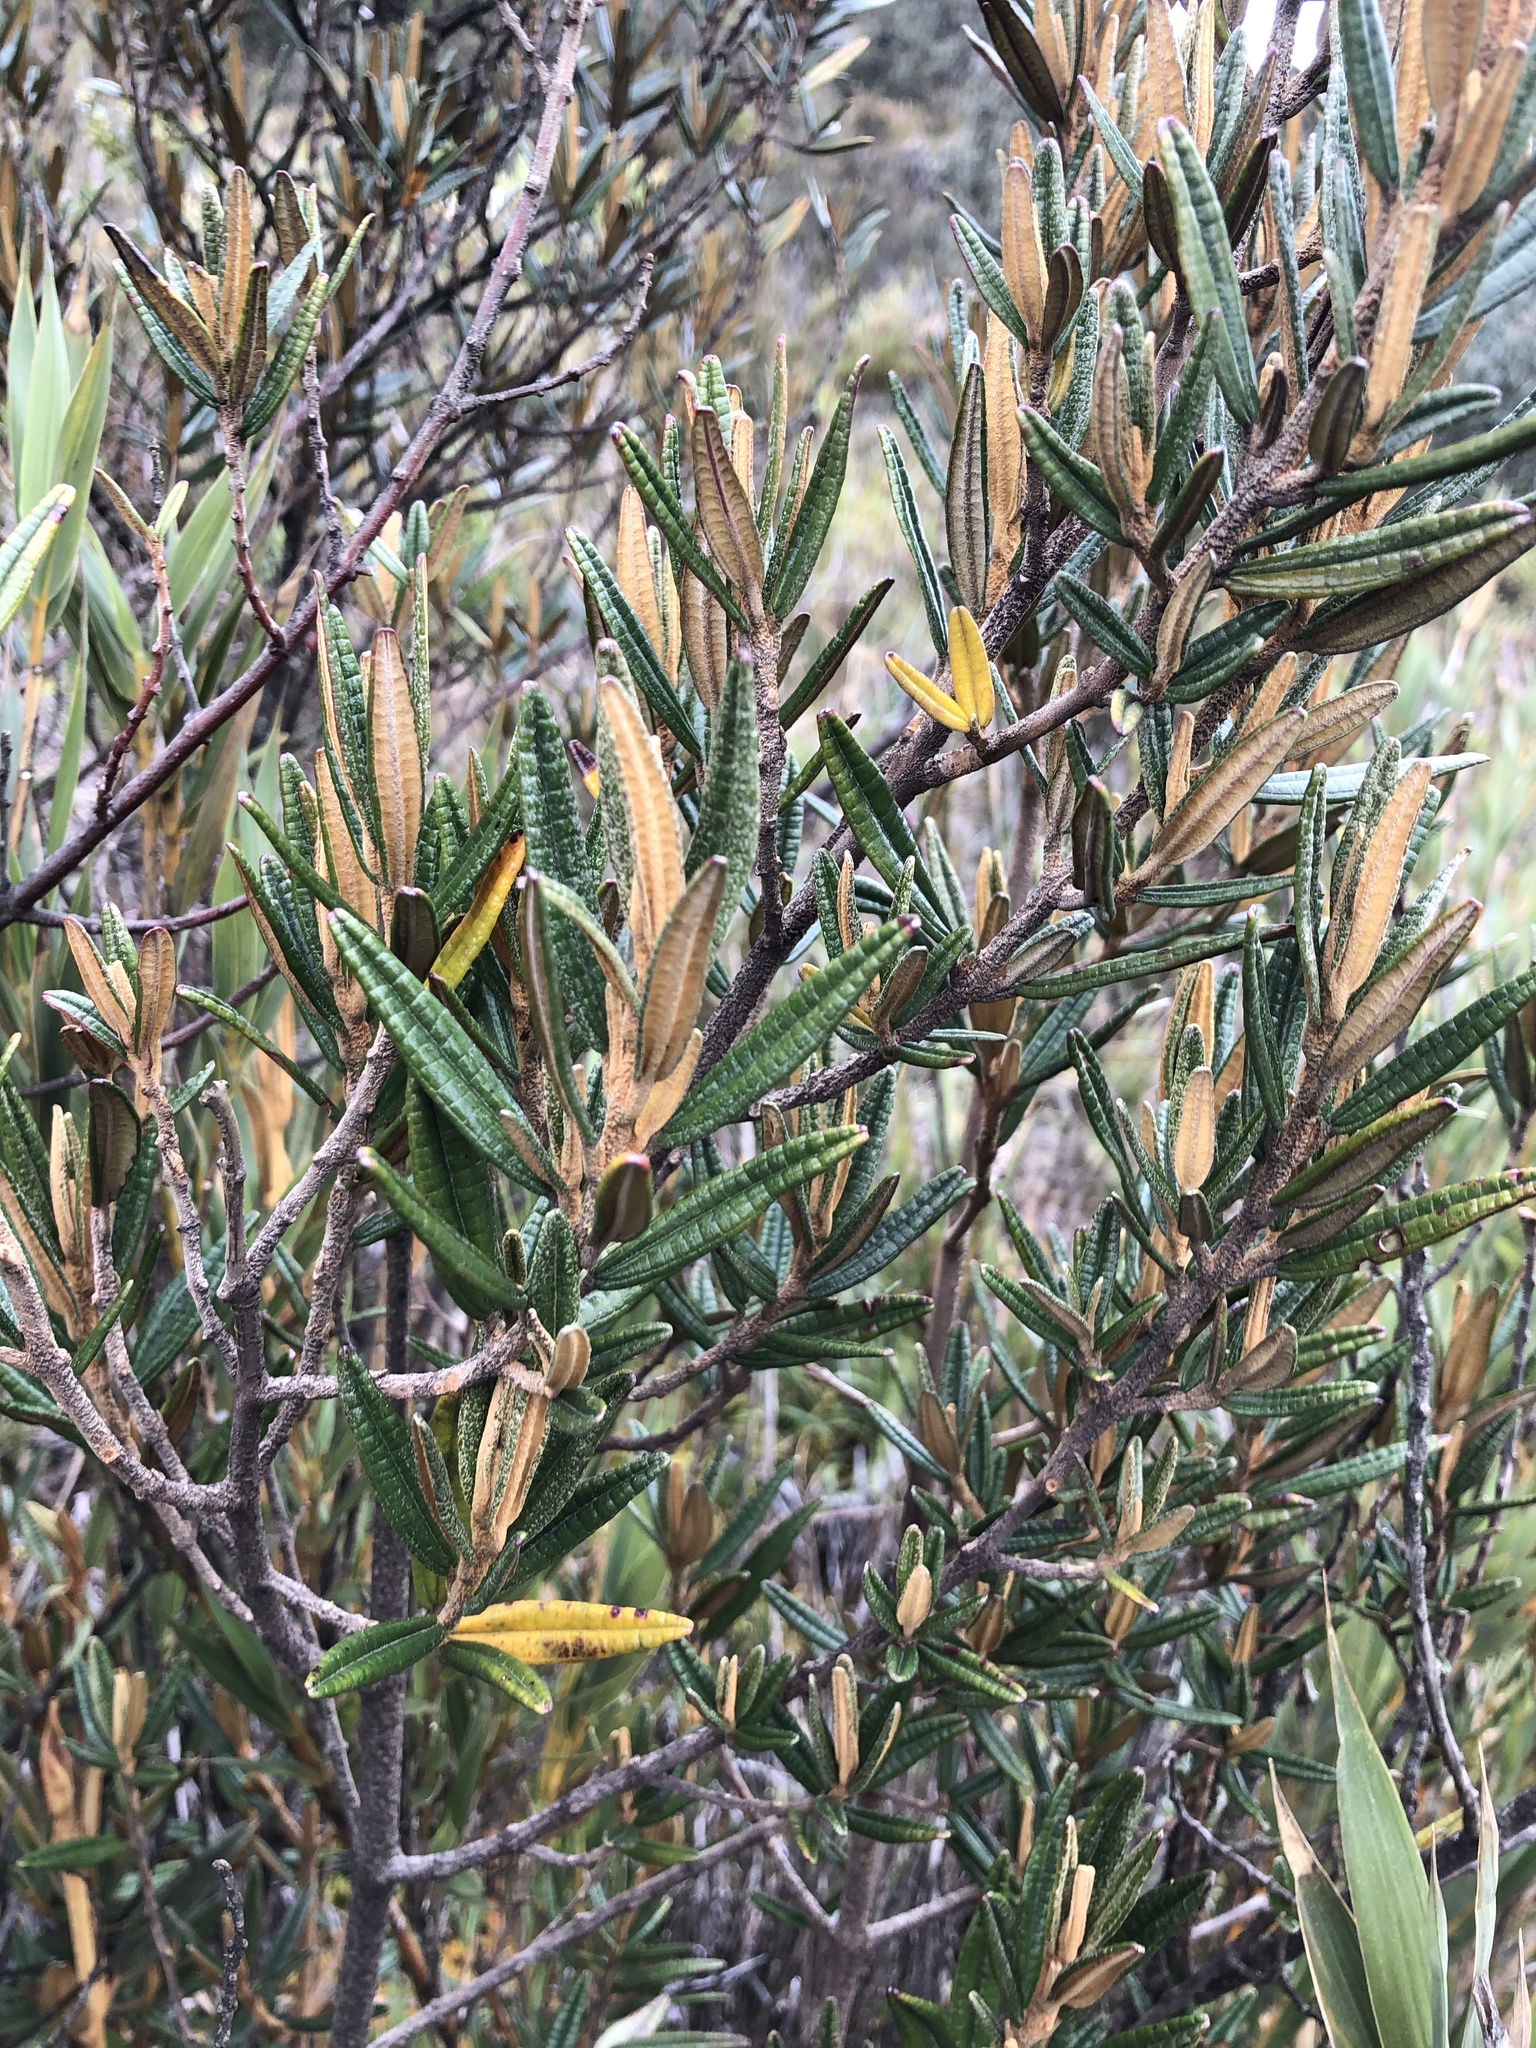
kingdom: Plantae
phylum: Tracheophyta
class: Magnoliopsida
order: Myrtales
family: Melastomataceae
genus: Miconia
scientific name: Miconia salicifolia
